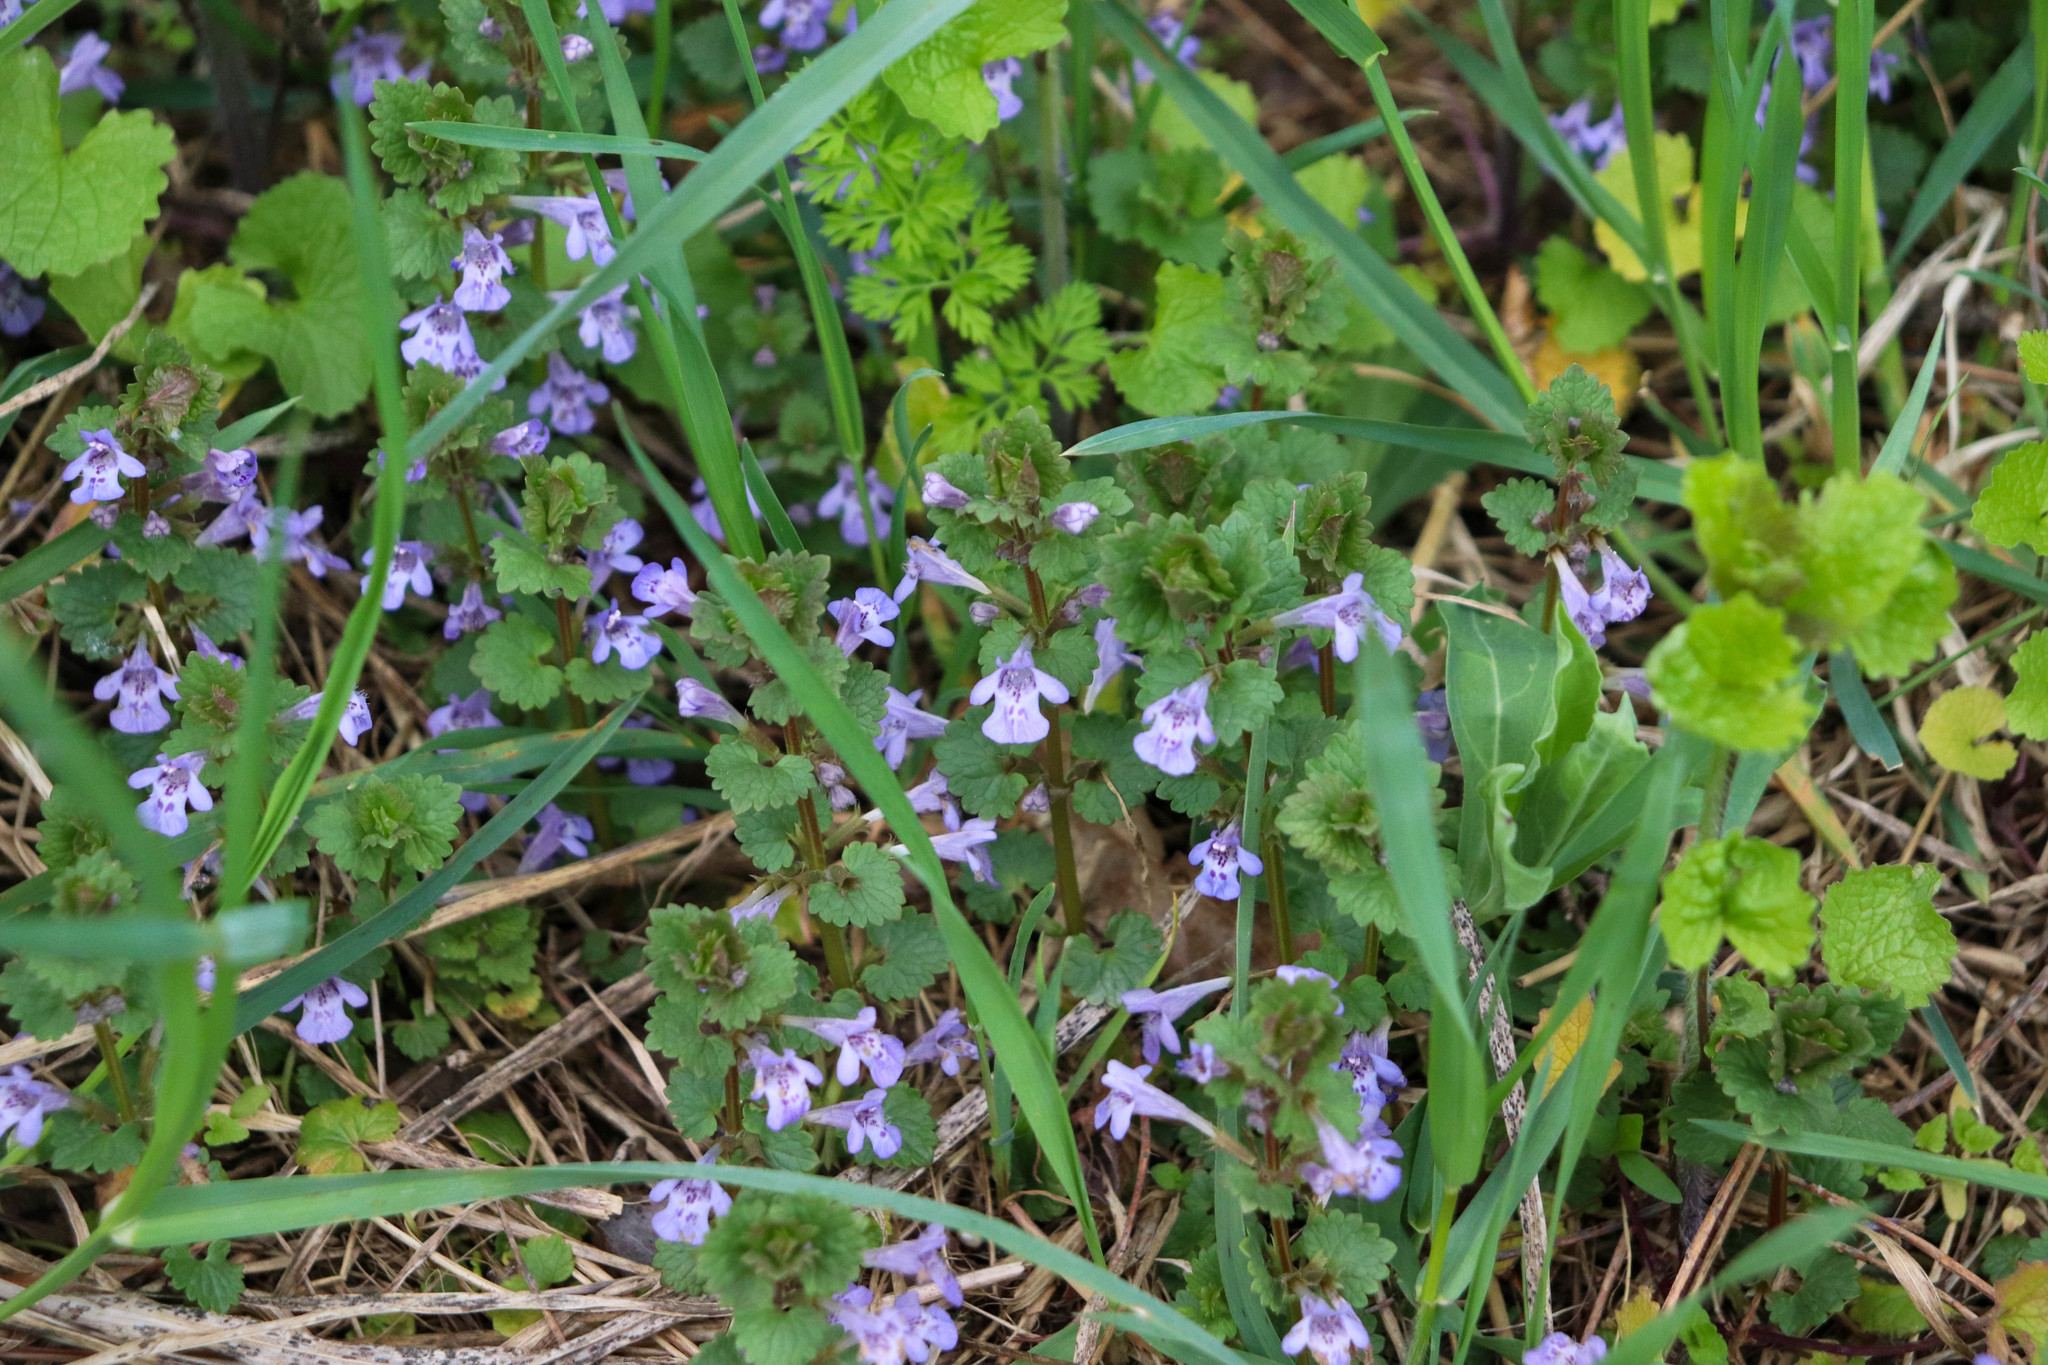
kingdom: Plantae
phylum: Tracheophyta
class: Magnoliopsida
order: Lamiales
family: Lamiaceae
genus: Glechoma
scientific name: Glechoma hederacea
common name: Ground ivy
